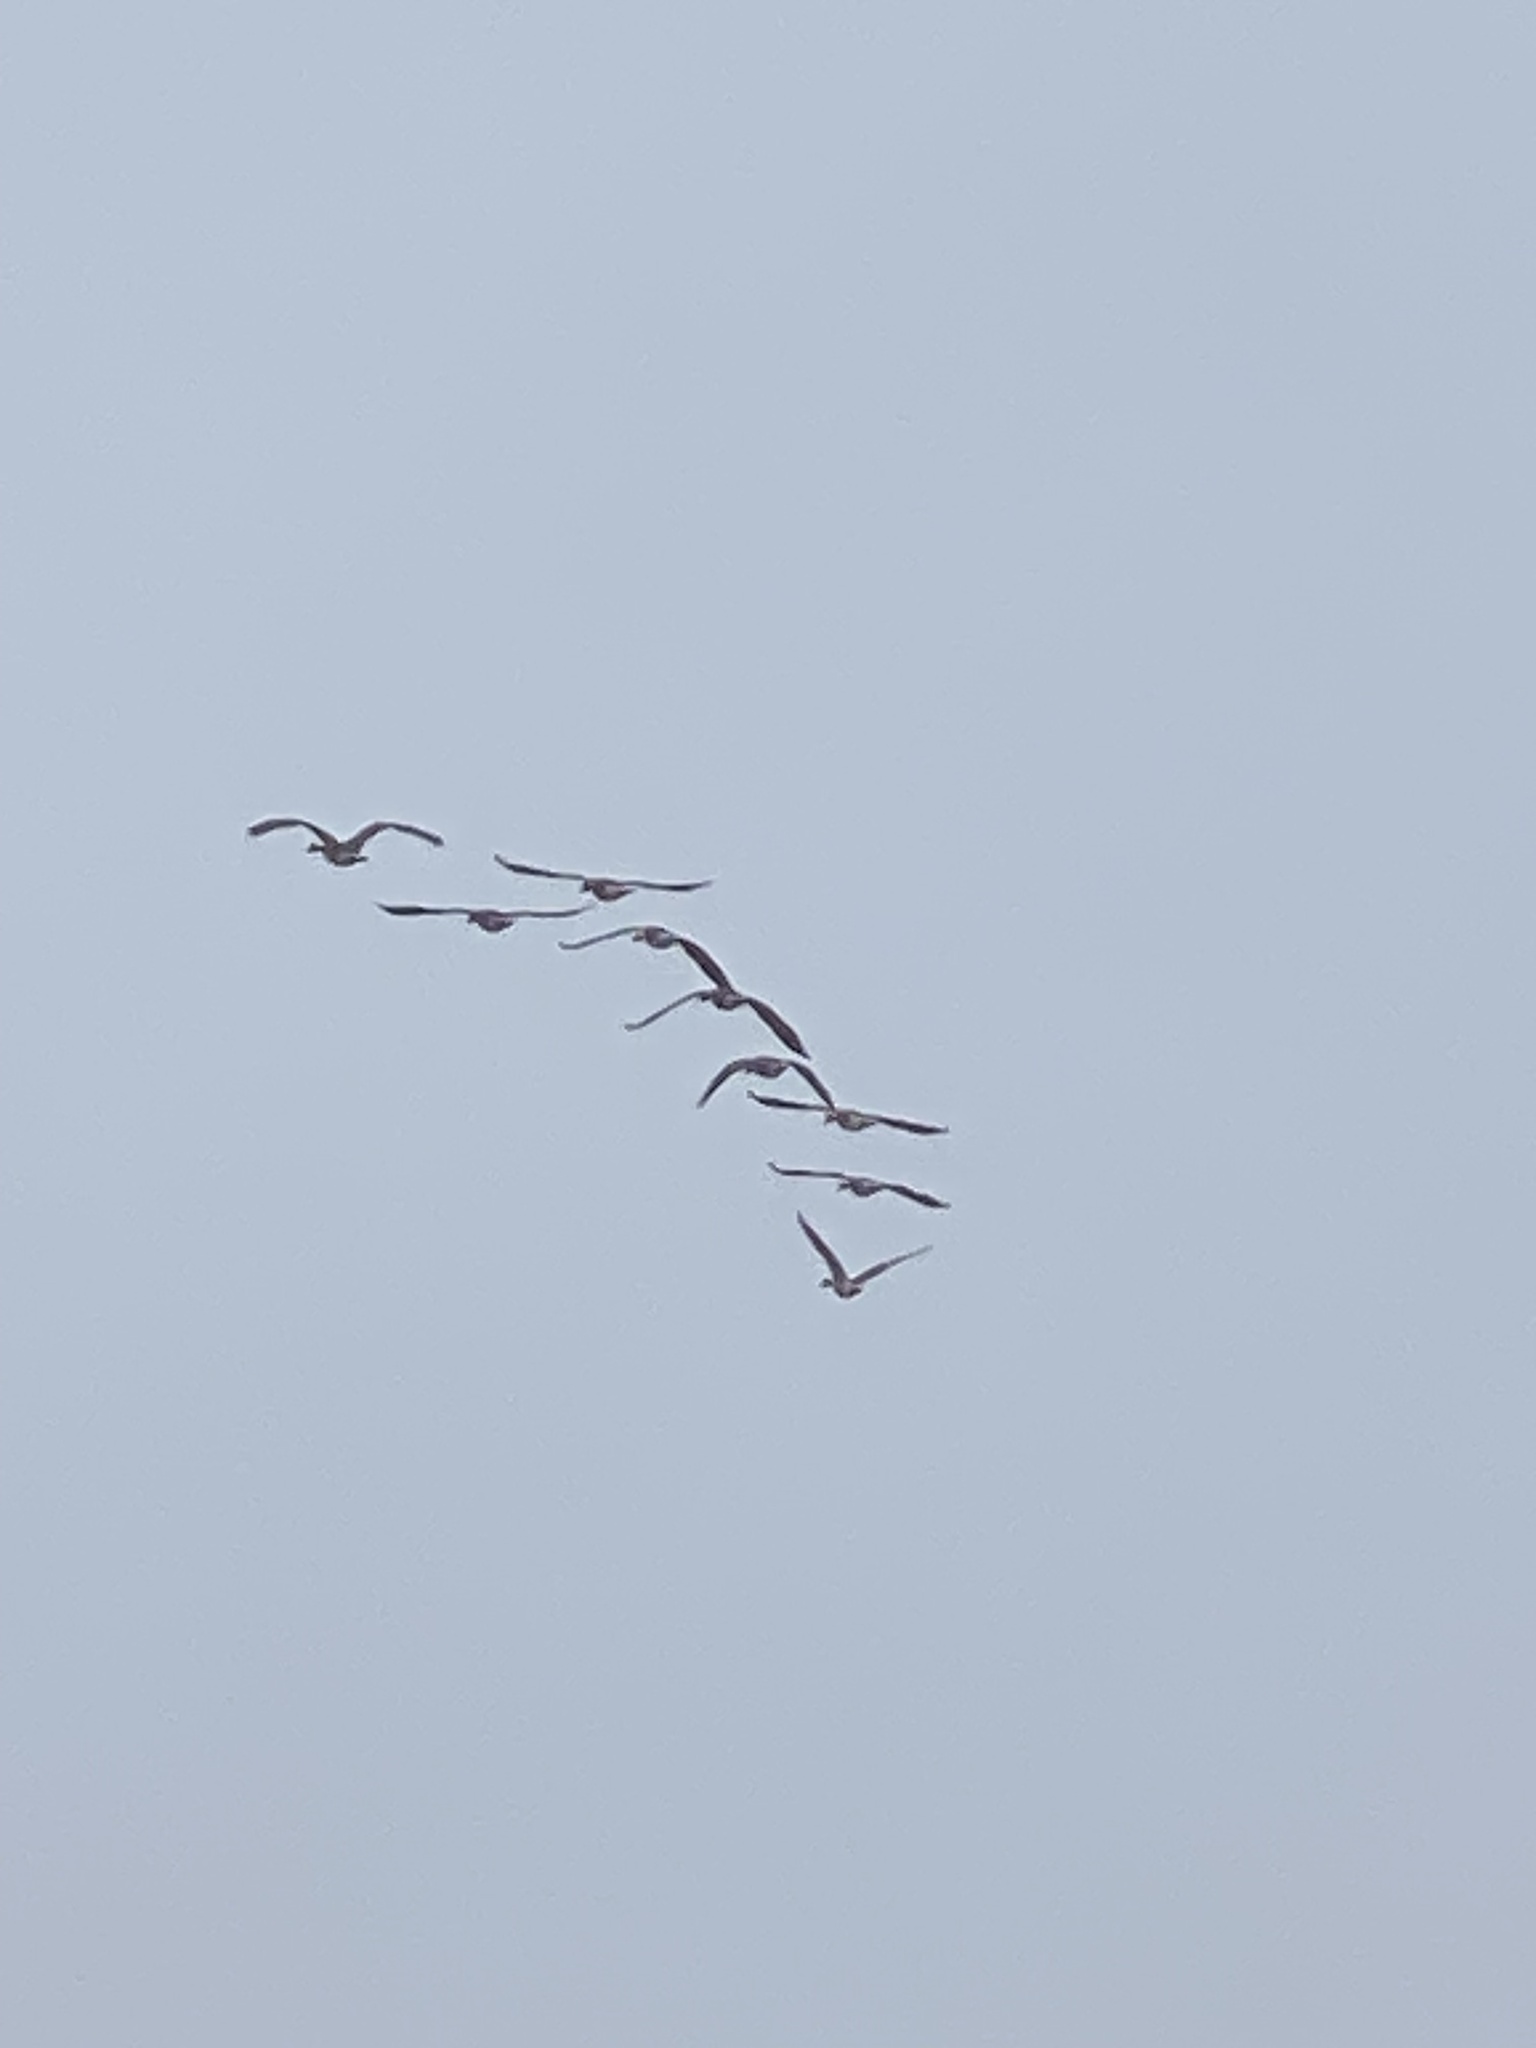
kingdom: Animalia
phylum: Chordata
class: Aves
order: Anseriformes
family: Anatidae
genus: Branta
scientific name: Branta canadensis
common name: Canada goose
